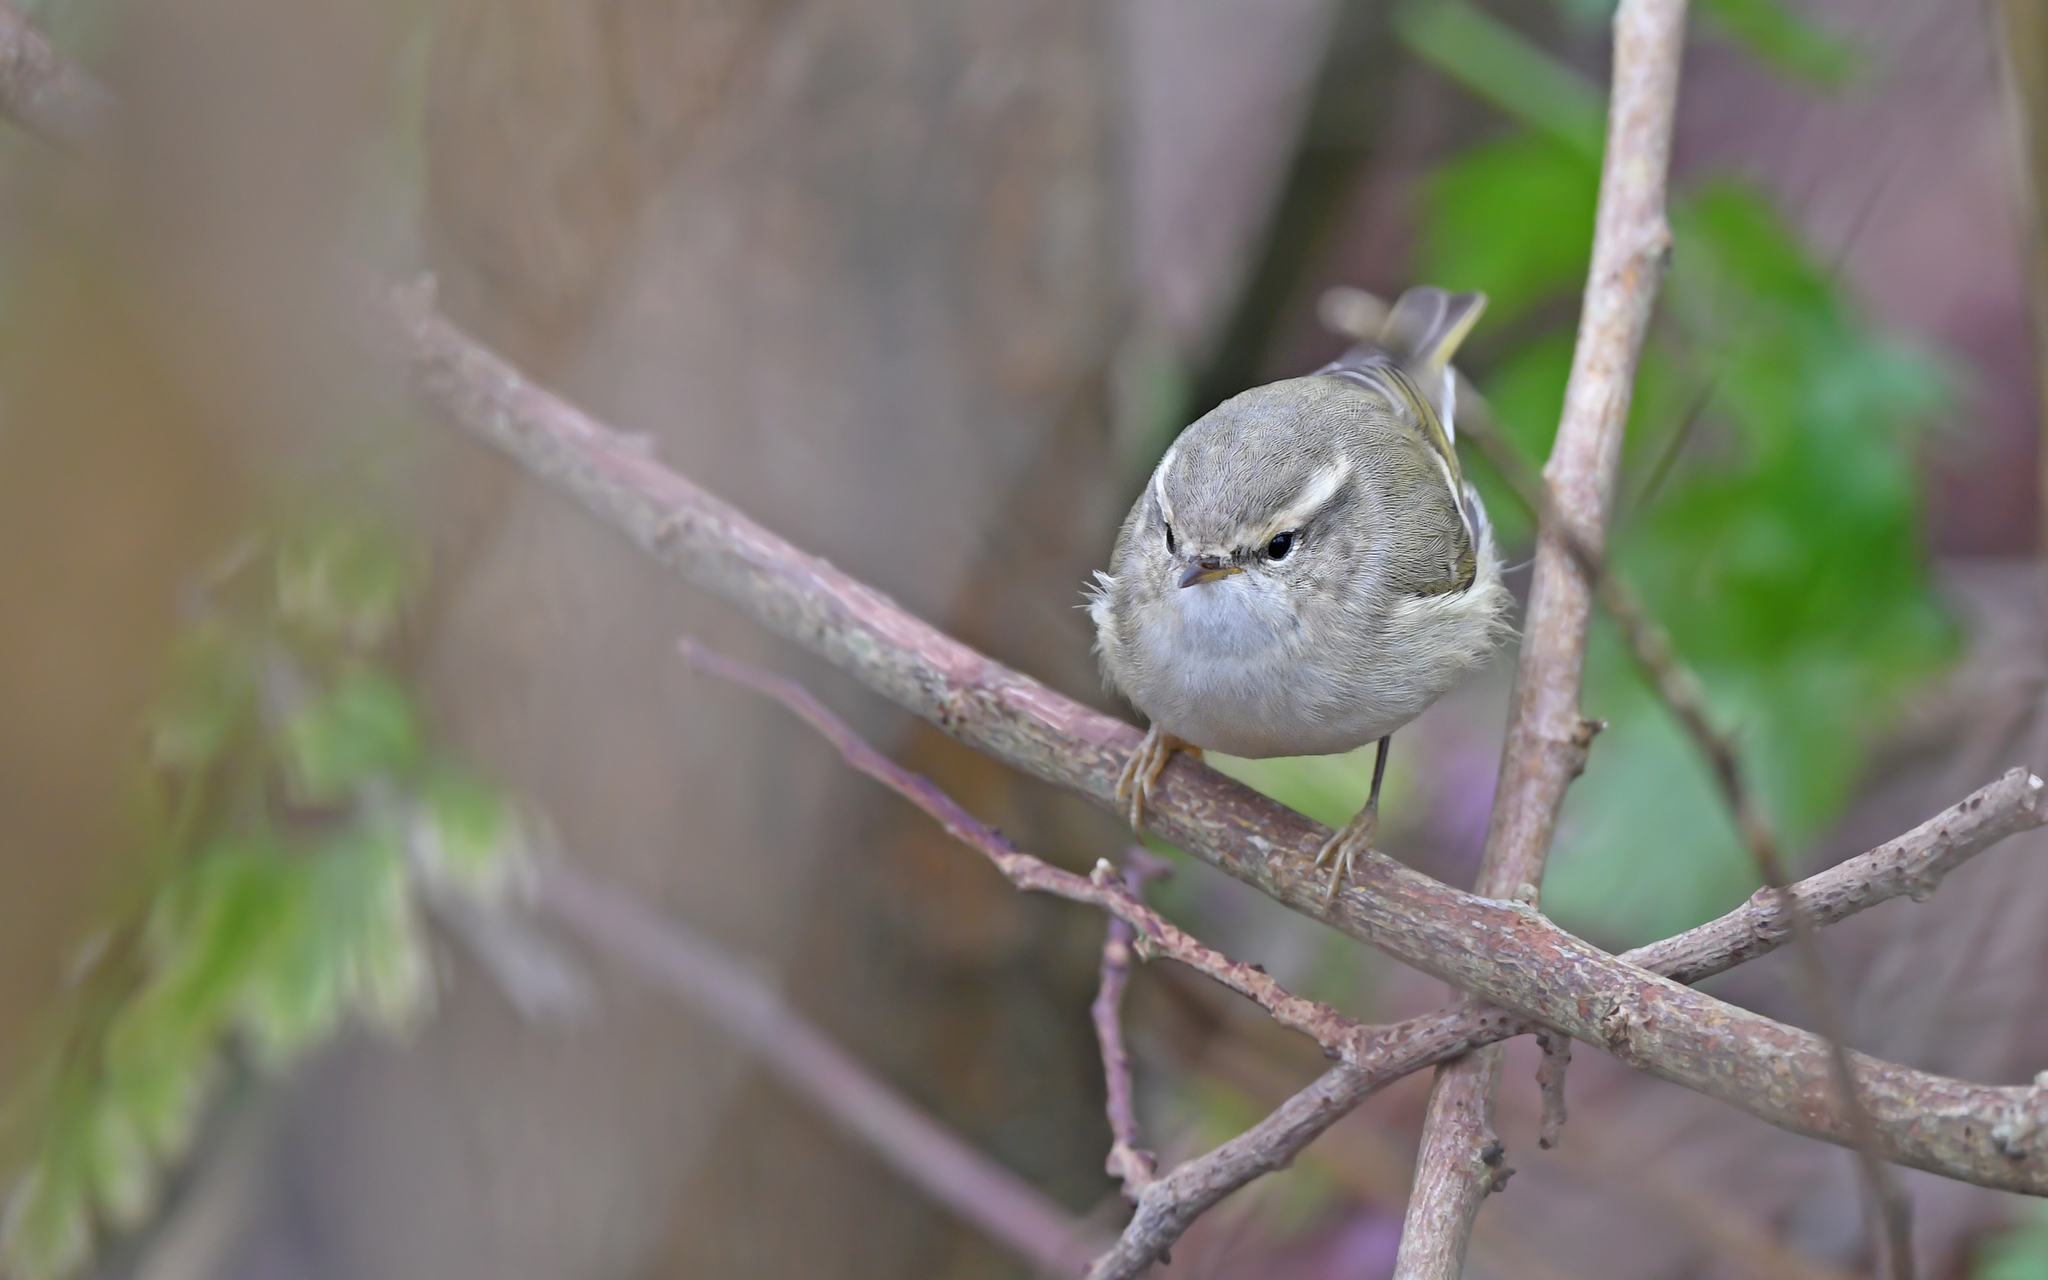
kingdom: Animalia
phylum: Chordata
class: Aves
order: Passeriformes
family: Phylloscopidae
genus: Phylloscopus
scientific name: Phylloscopus humei
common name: Hume's leaf warbler
